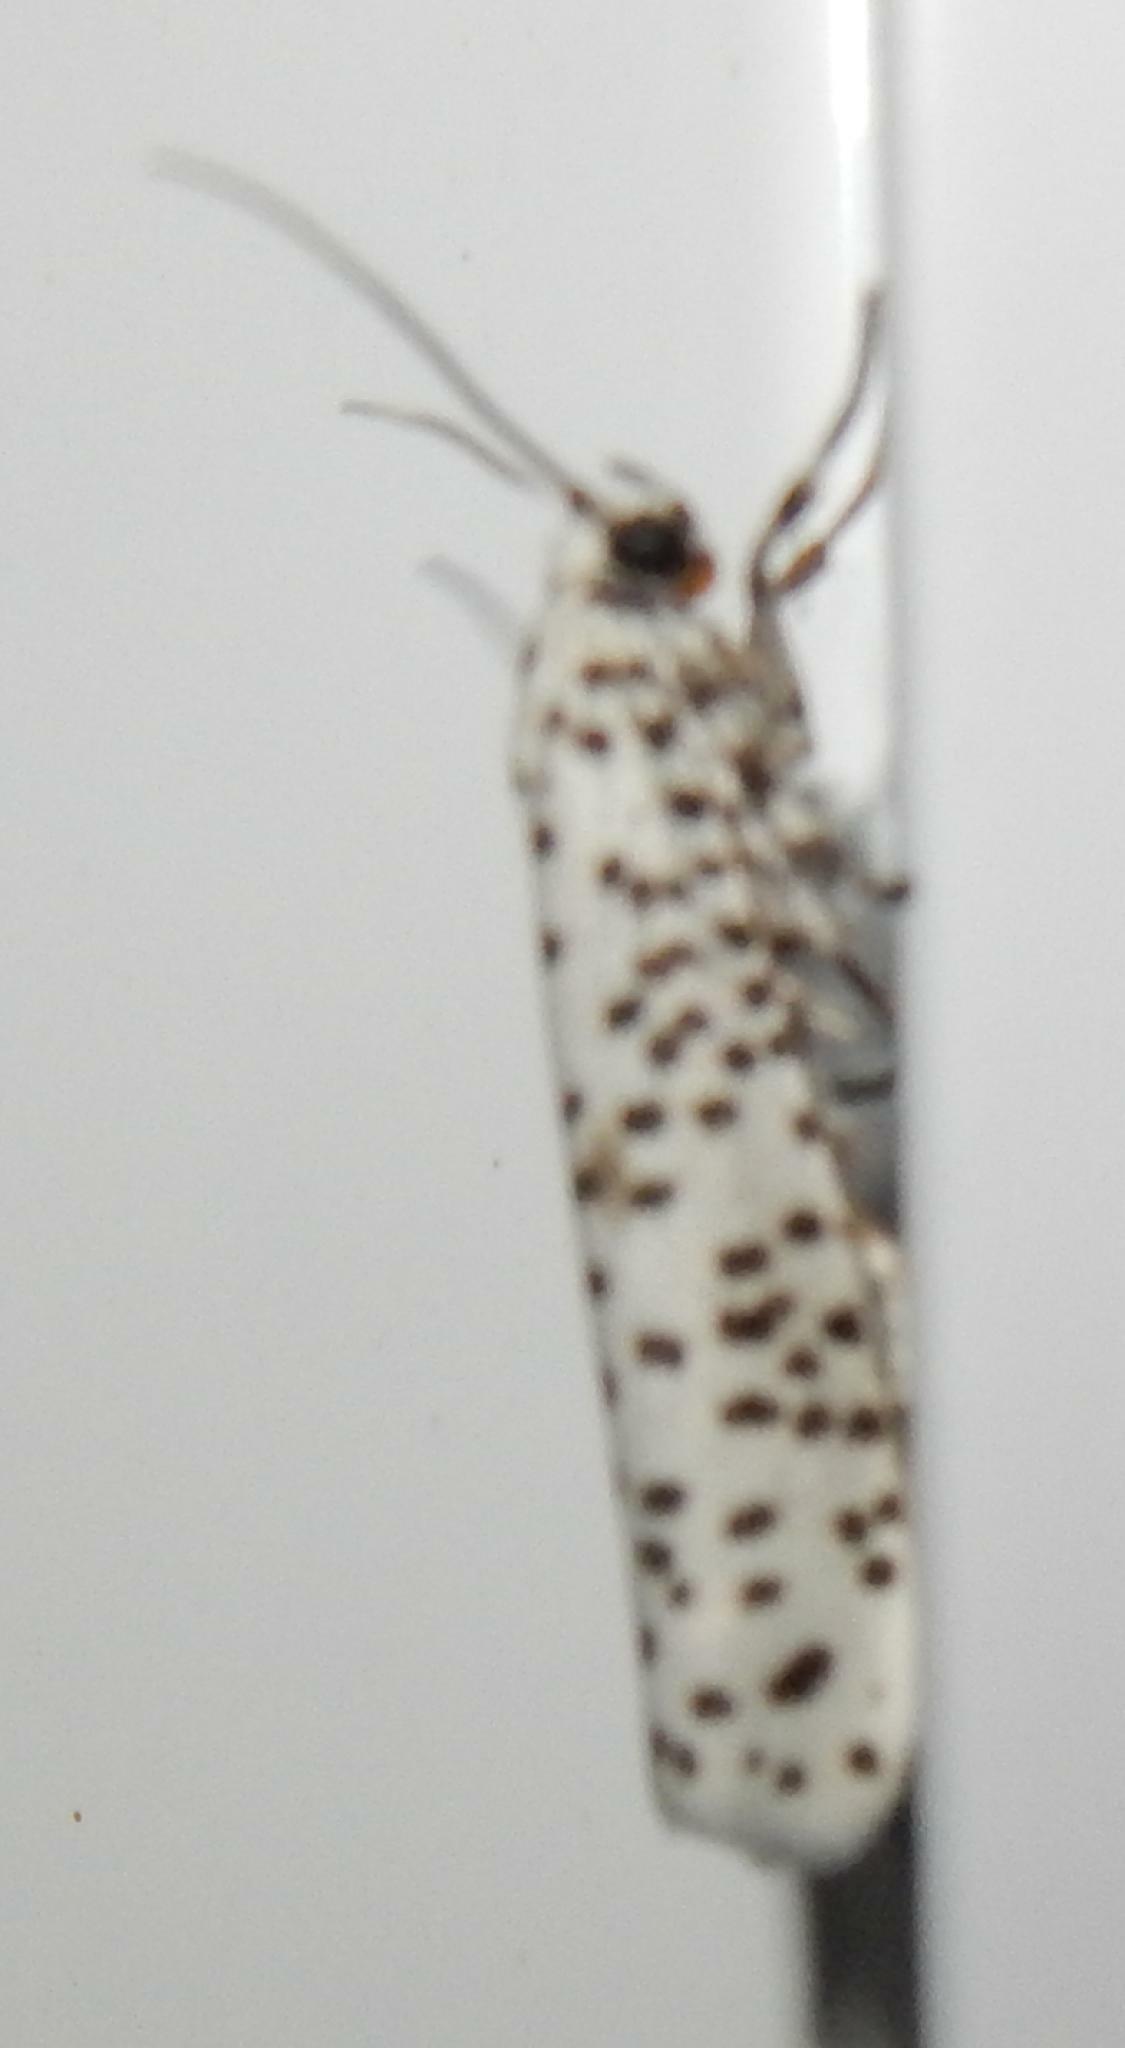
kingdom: Animalia
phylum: Arthropoda
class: Insecta
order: Lepidoptera
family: Yponomeutidae
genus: Yponomeuta
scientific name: Yponomeuta strigillata
